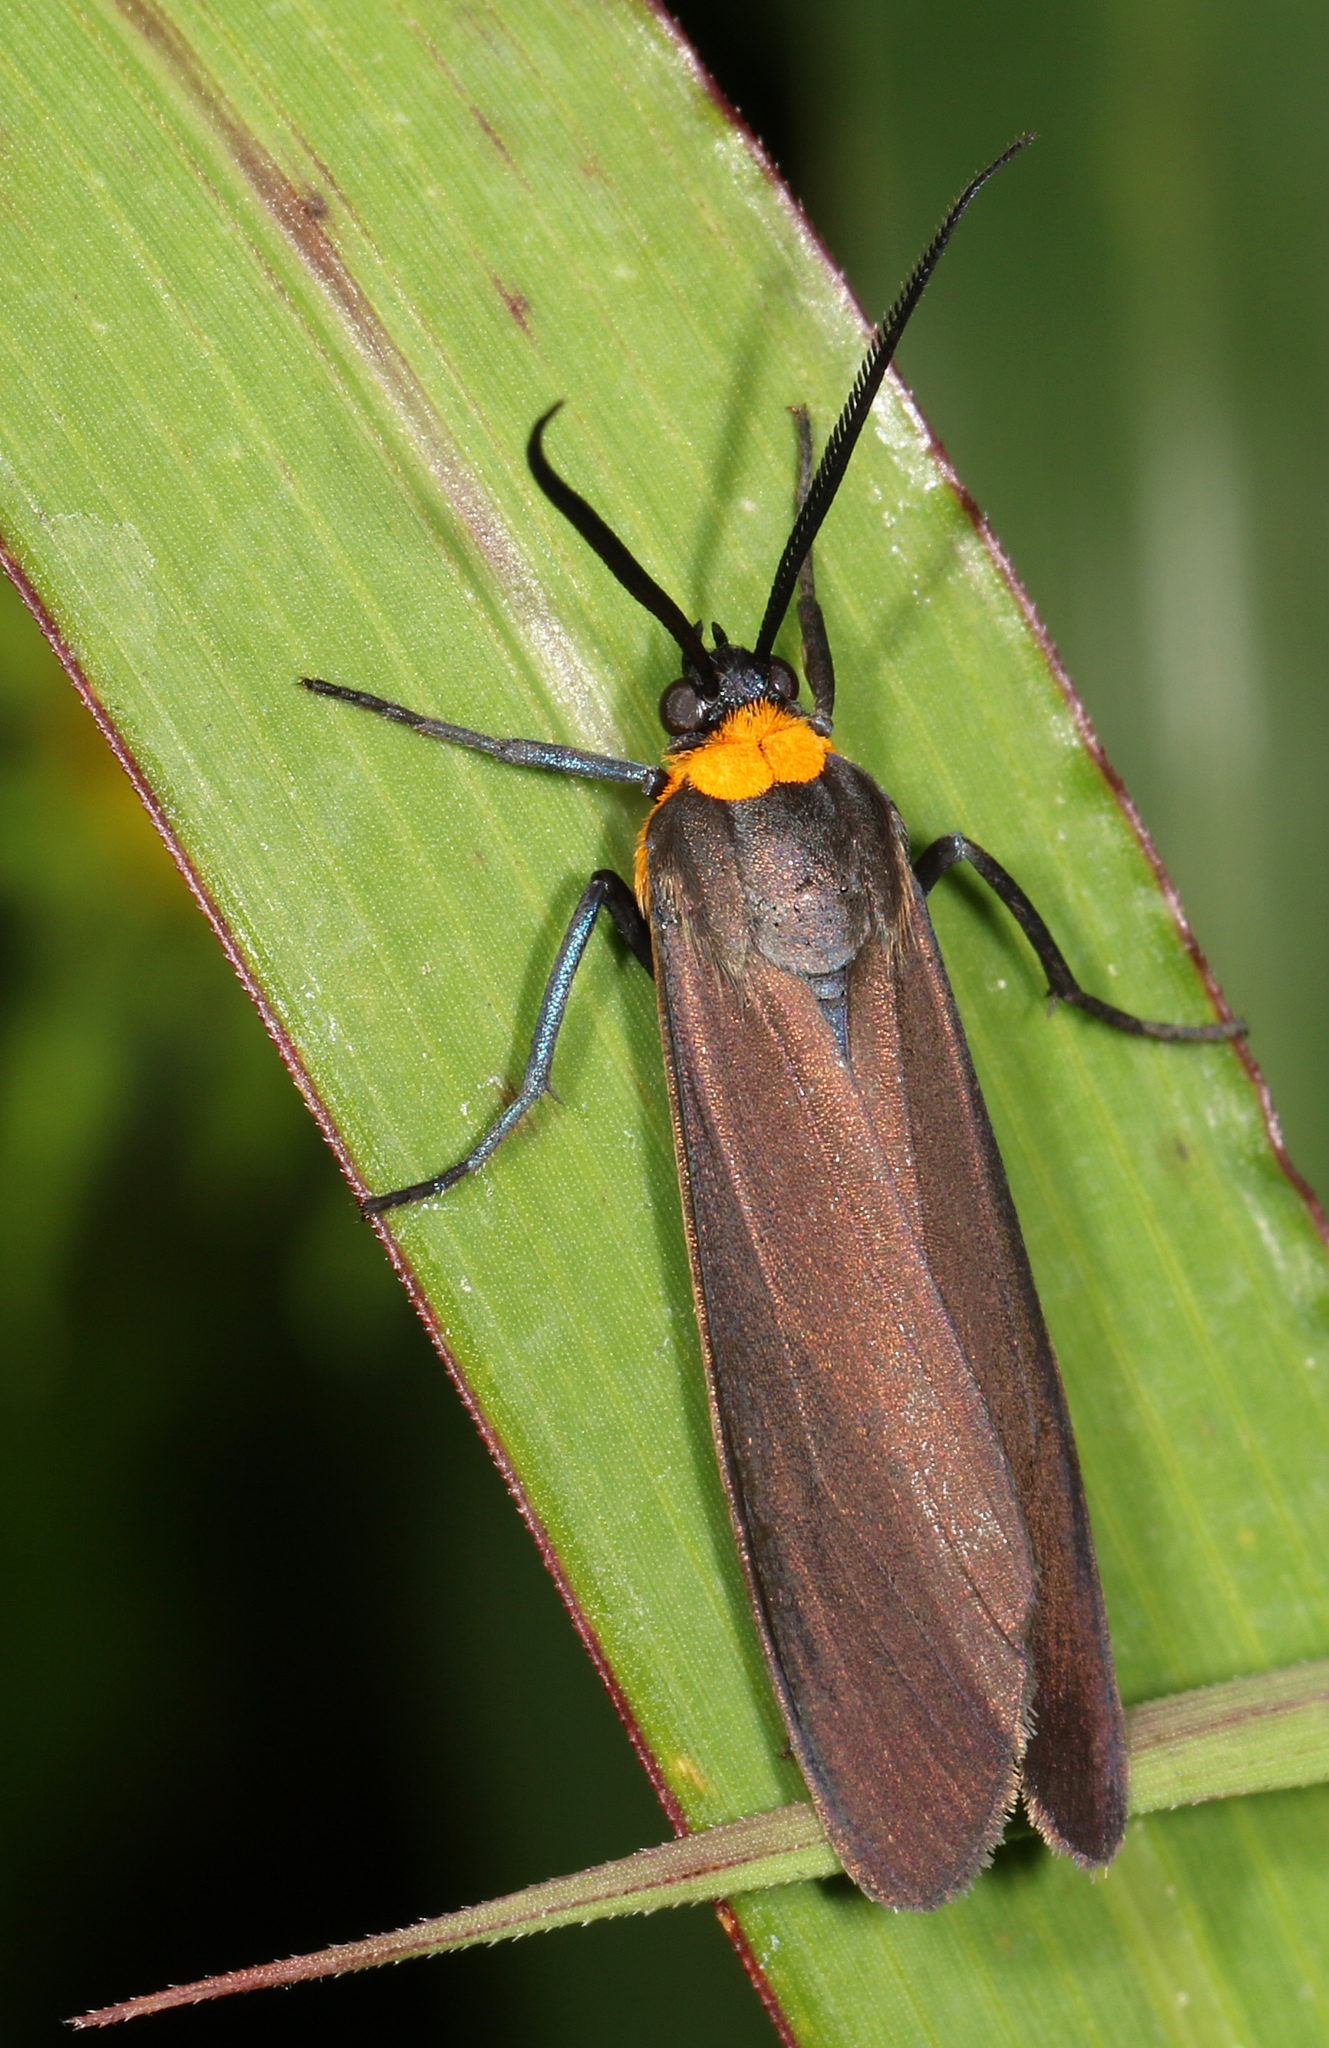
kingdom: Animalia
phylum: Arthropoda
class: Insecta
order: Lepidoptera
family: Erebidae
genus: Cisseps
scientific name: Cisseps fulvicollis
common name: Yellow-collared scape moth
